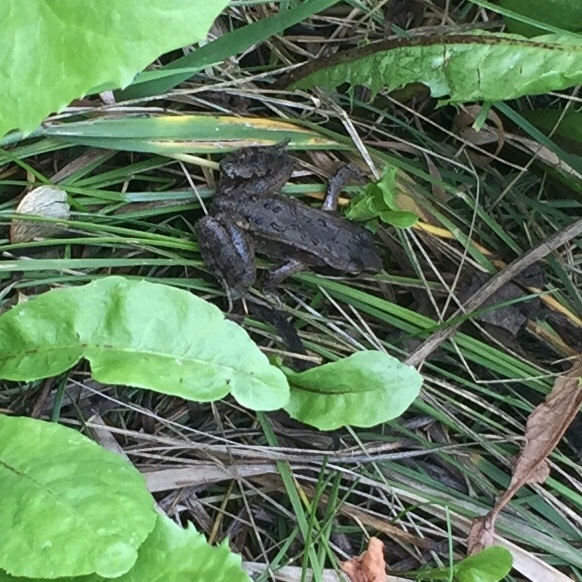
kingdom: Animalia
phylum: Chordata
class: Amphibia
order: Anura
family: Ranidae
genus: Lithobates
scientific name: Lithobates sylvaticus
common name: Wood frog
